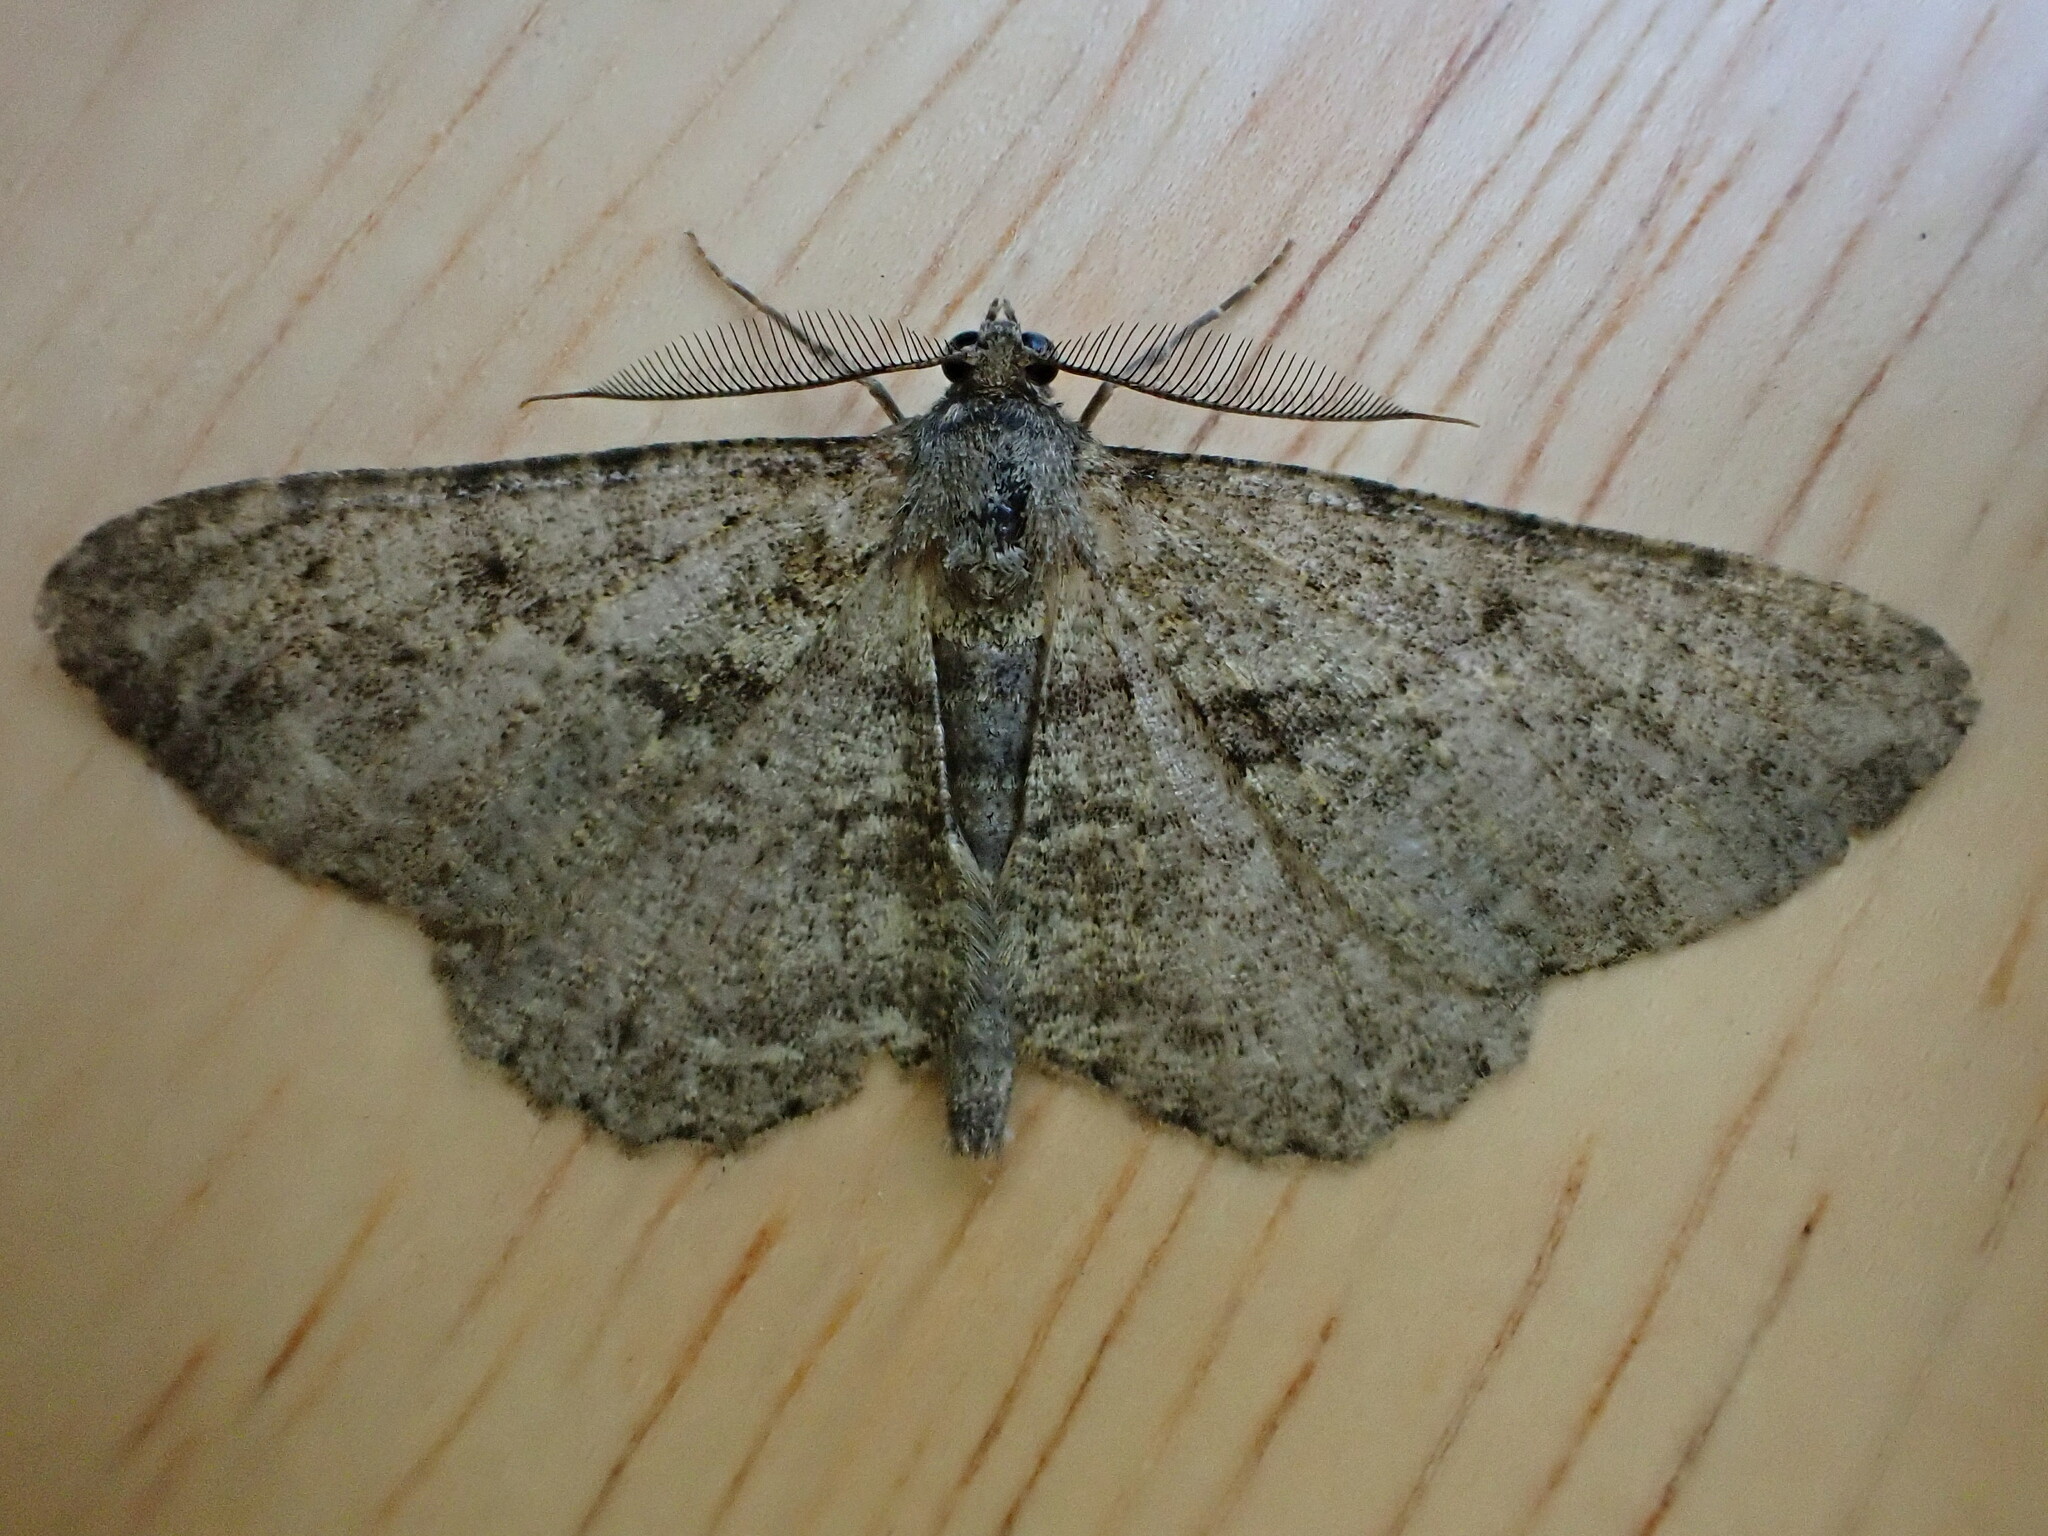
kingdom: Animalia
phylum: Arthropoda
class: Insecta
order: Lepidoptera
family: Geometridae
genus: Peribatodes
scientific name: Peribatodes rhomboidaria
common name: Willow beauty
